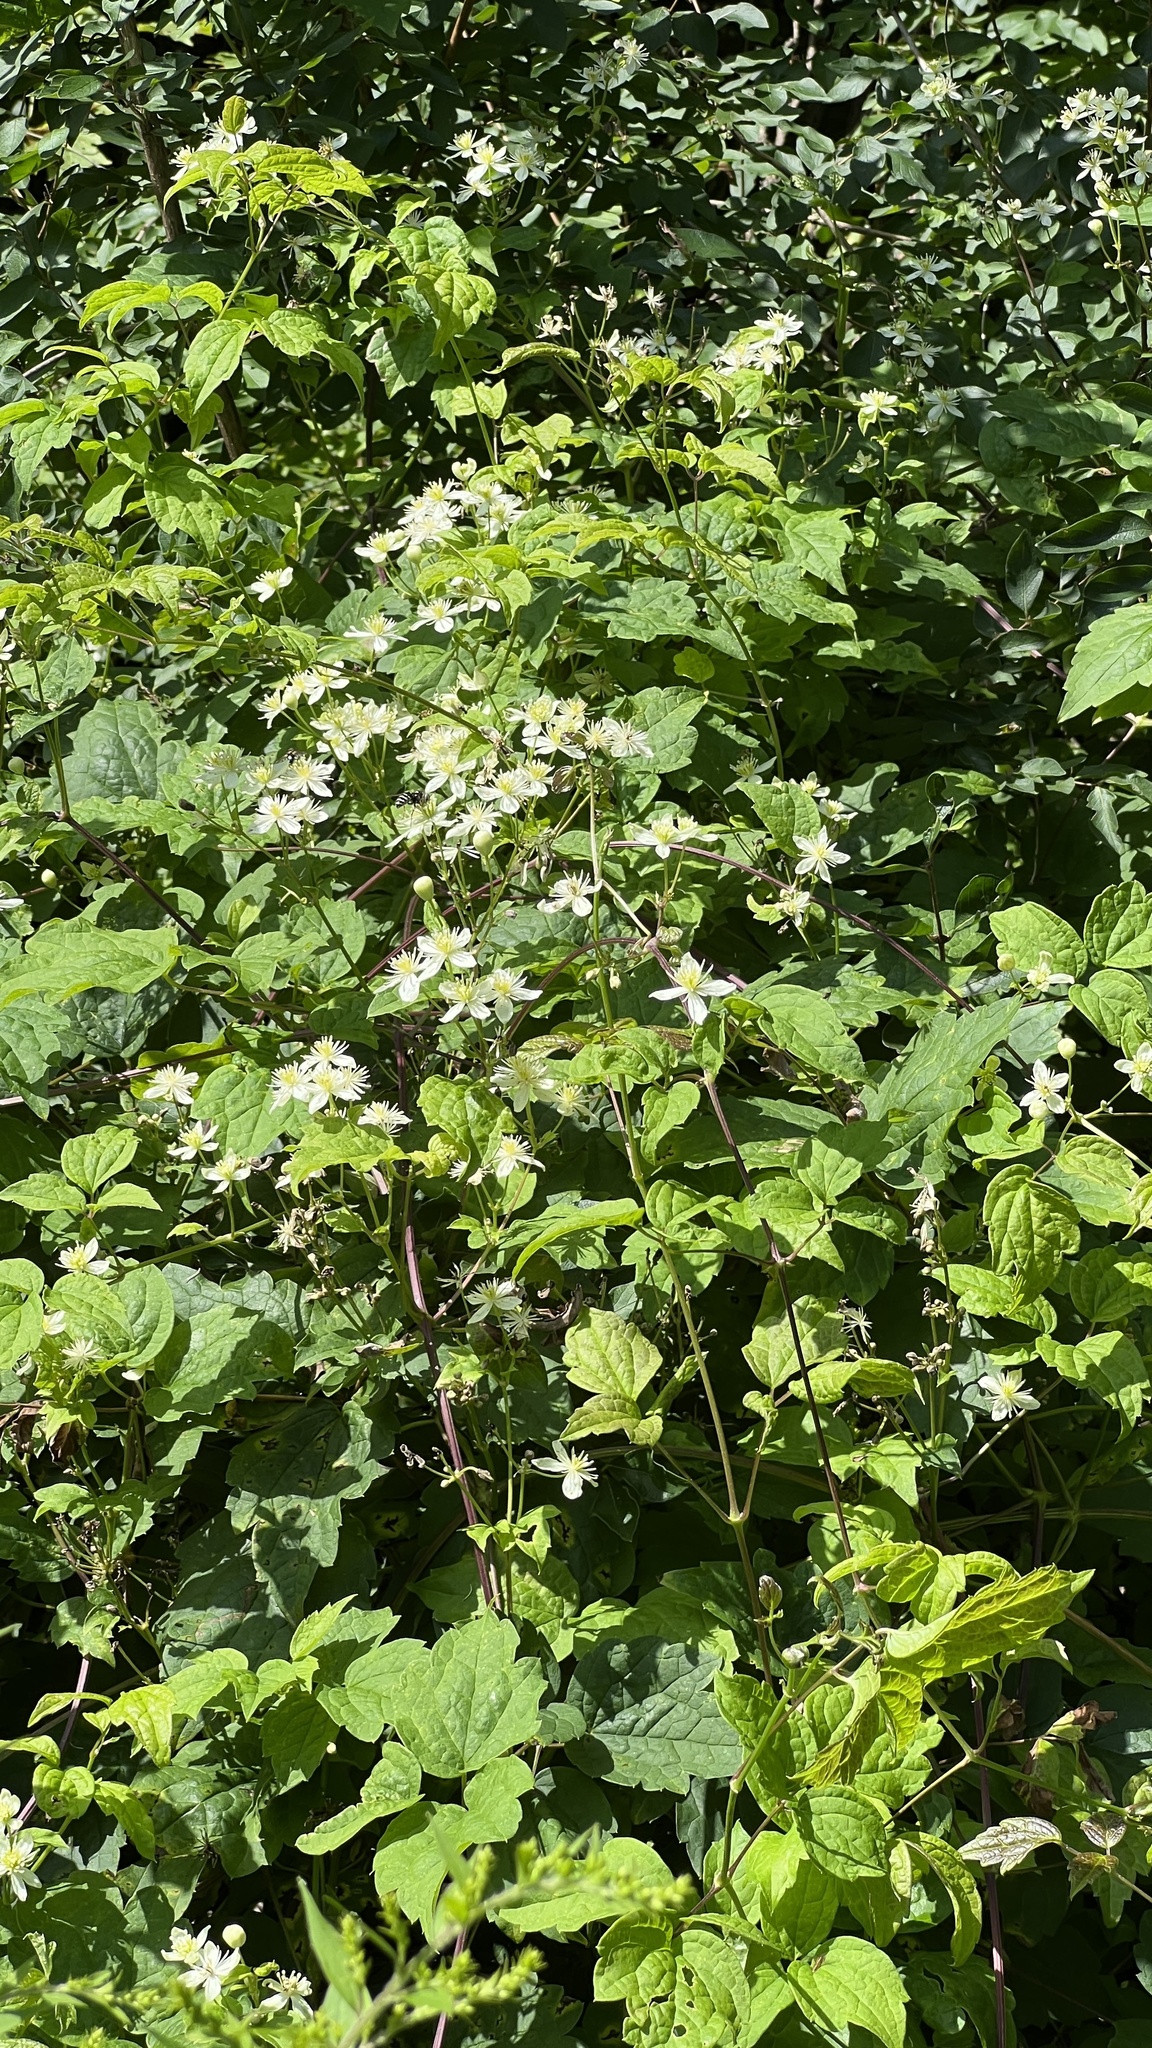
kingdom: Plantae
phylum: Tracheophyta
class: Magnoliopsida
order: Ranunculales
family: Ranunculaceae
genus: Clematis
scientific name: Clematis virginiana
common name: Virgin's-bower
